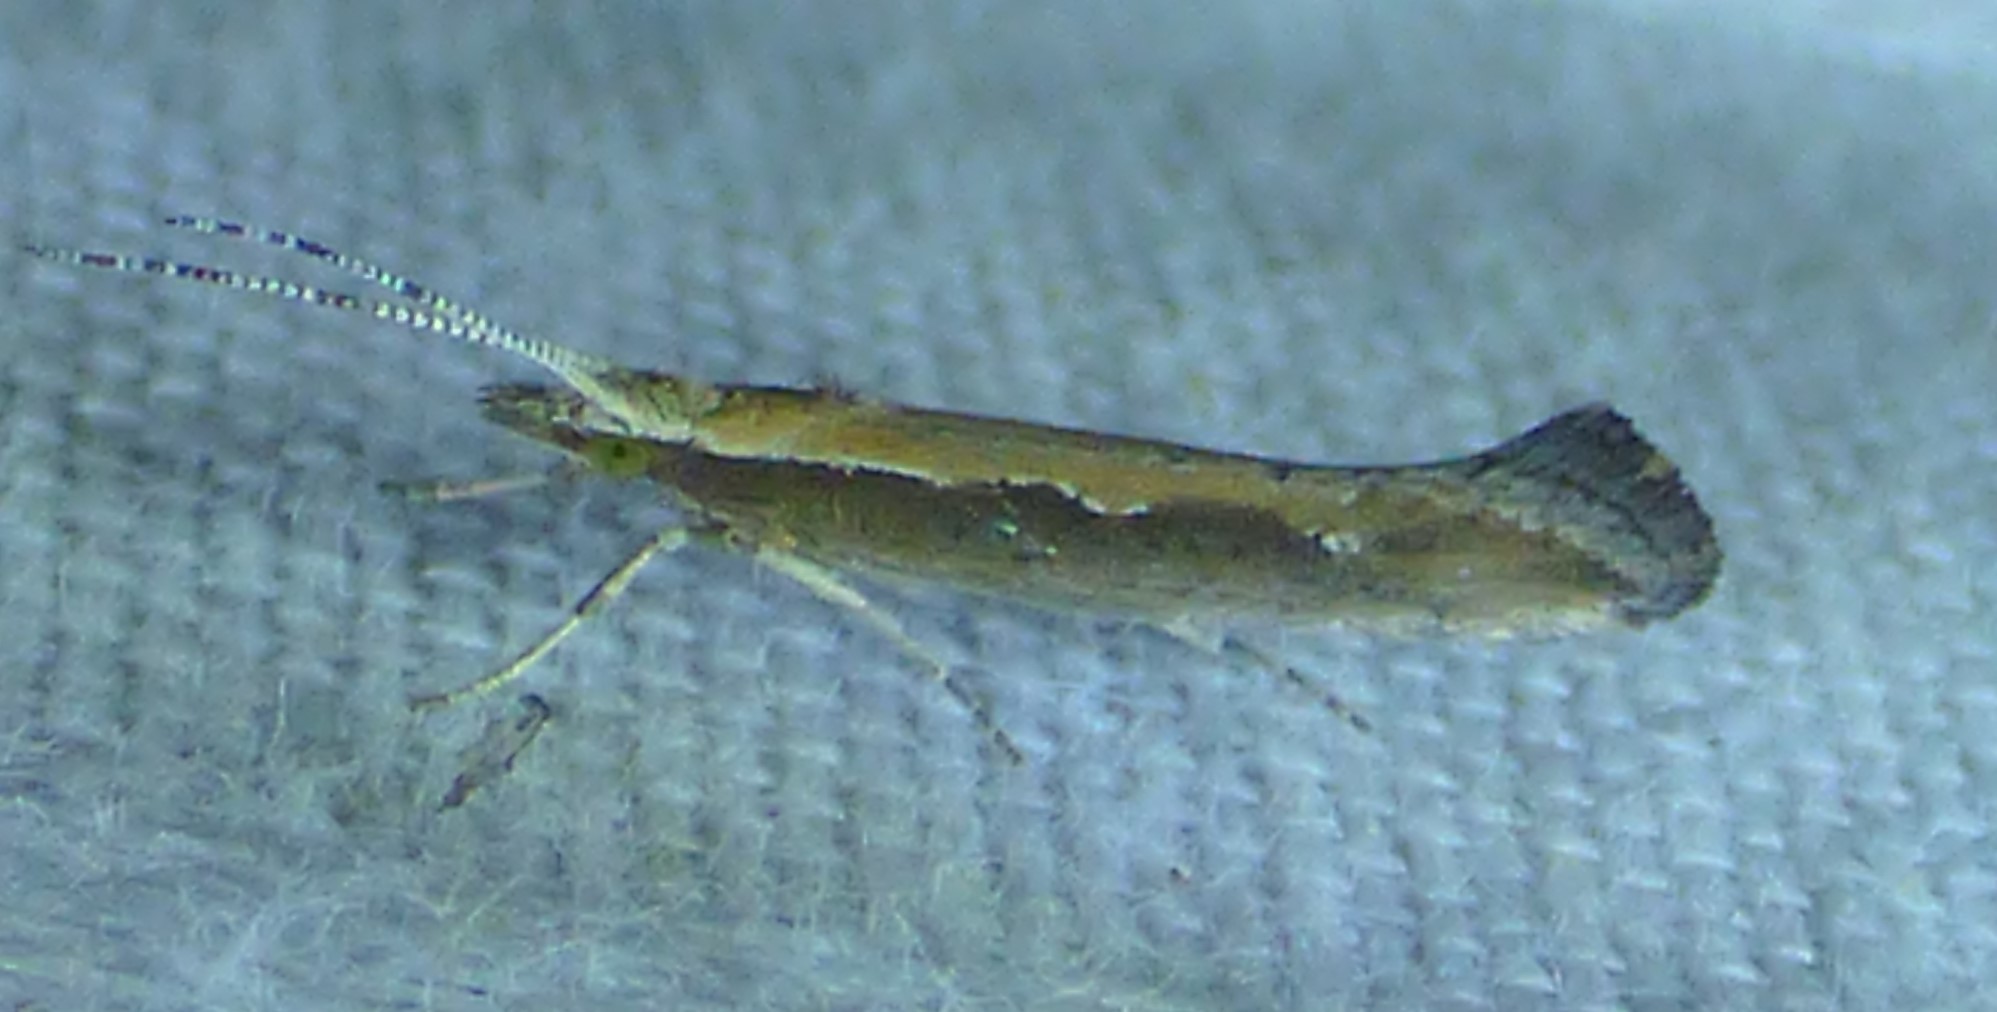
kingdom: Animalia
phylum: Arthropoda
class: Insecta
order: Lepidoptera
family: Plutellidae
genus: Plutella
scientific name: Plutella xylostella
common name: Diamond-back moth
